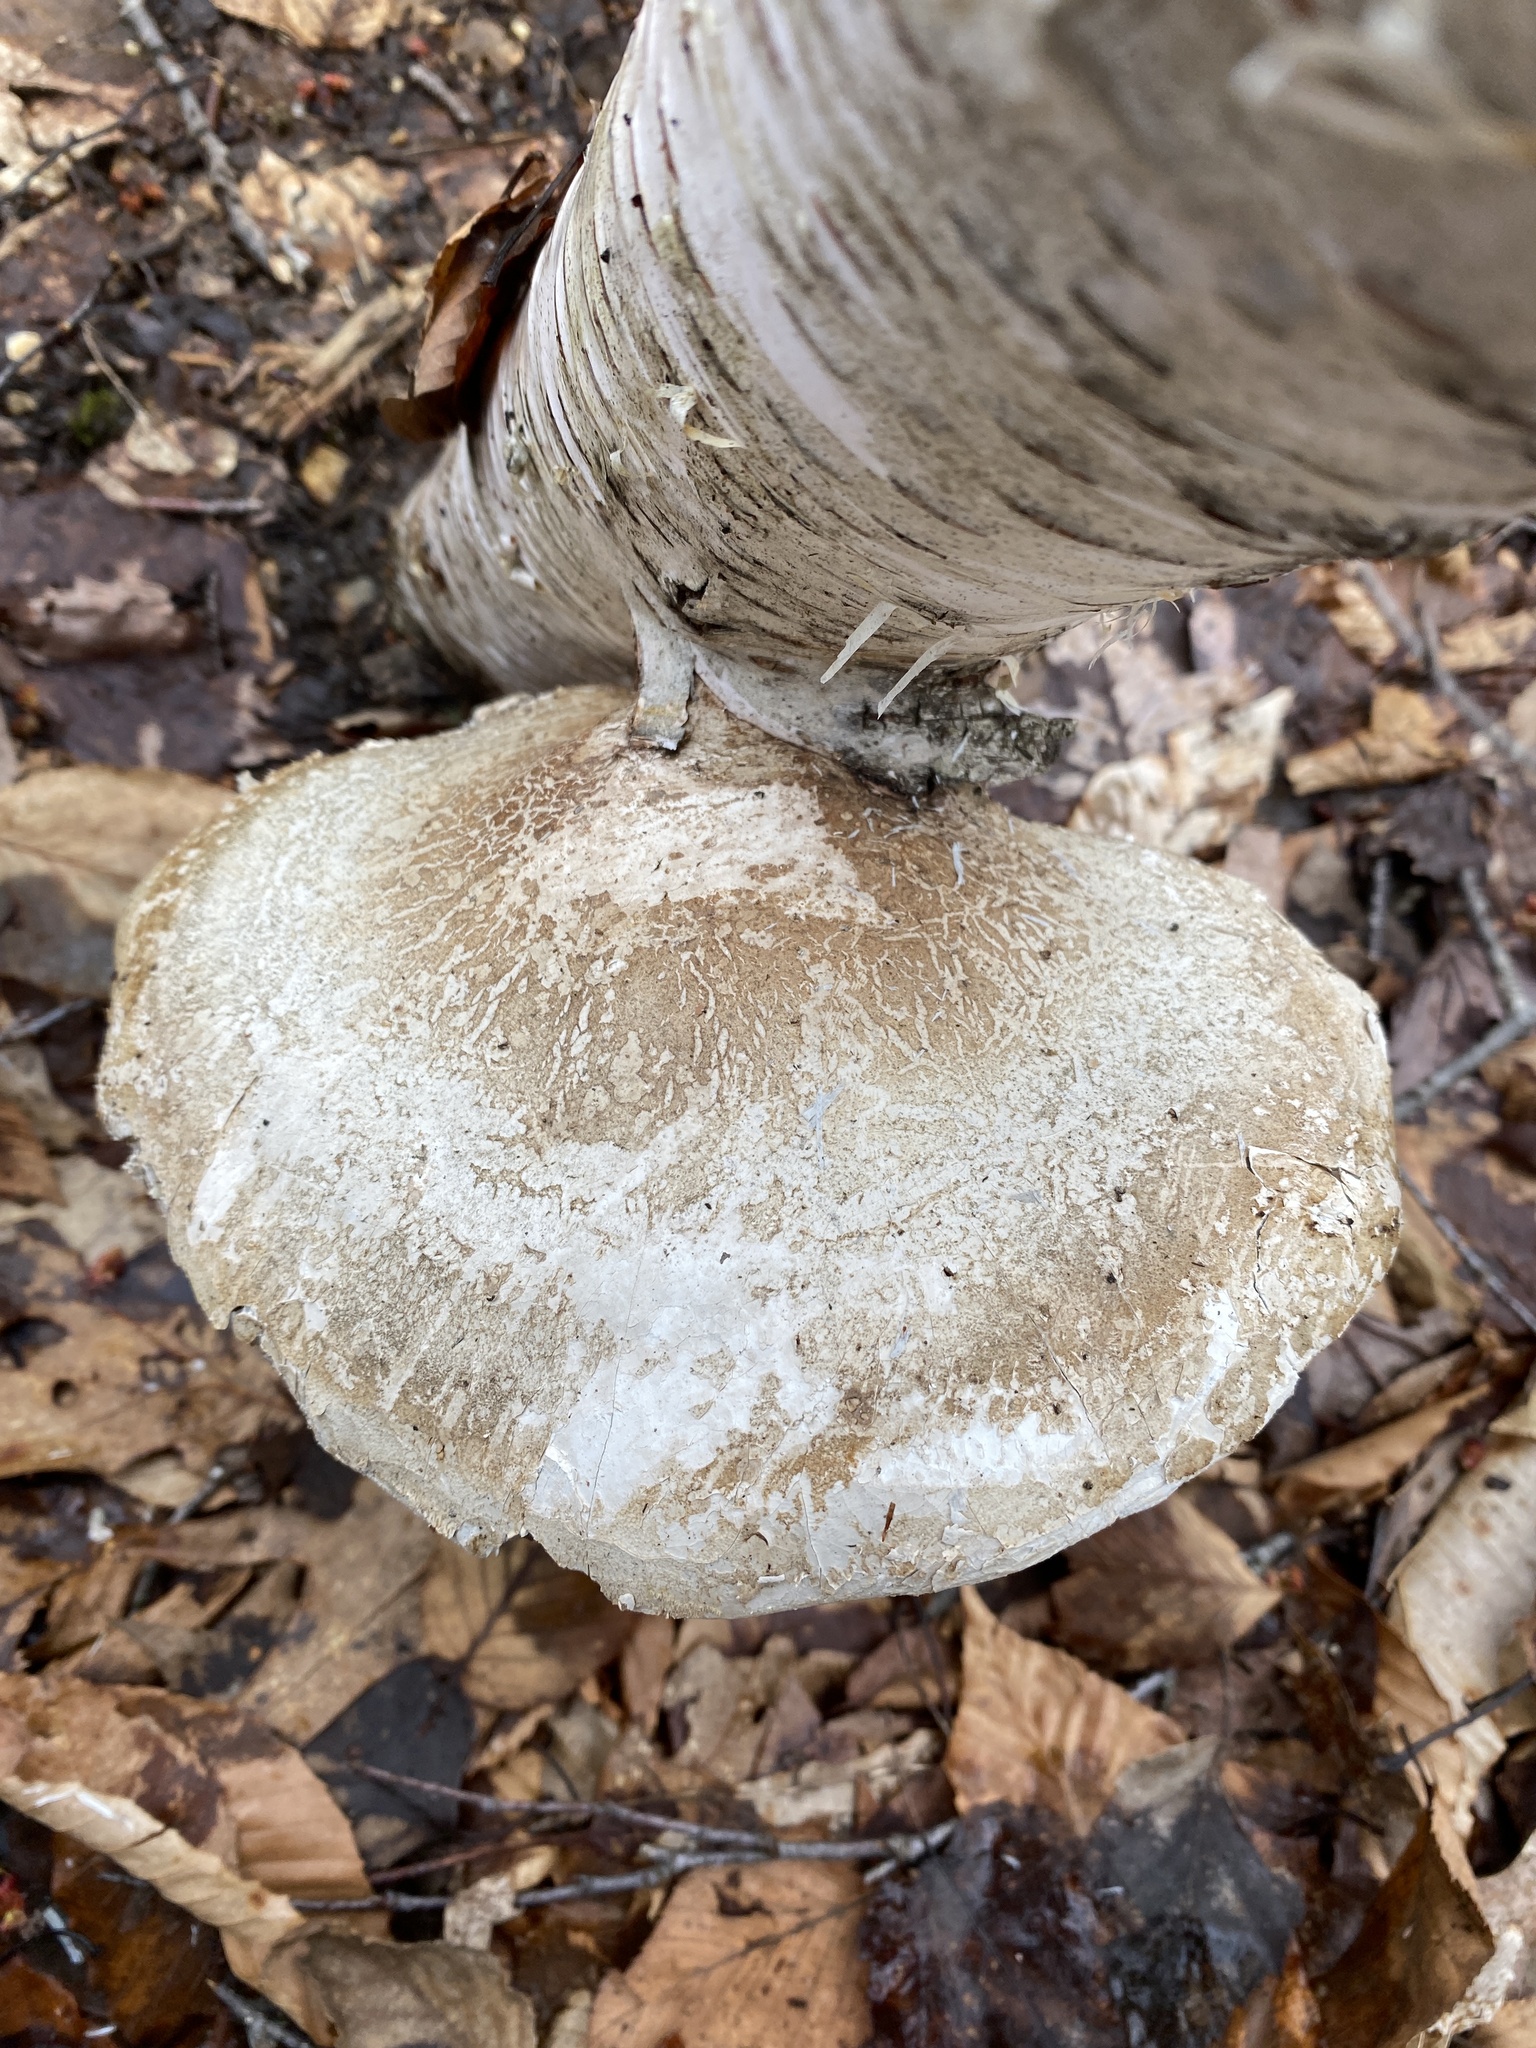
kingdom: Fungi
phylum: Basidiomycota
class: Agaricomycetes
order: Polyporales
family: Fomitopsidaceae
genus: Fomitopsis
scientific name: Fomitopsis betulina
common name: Birch polypore
